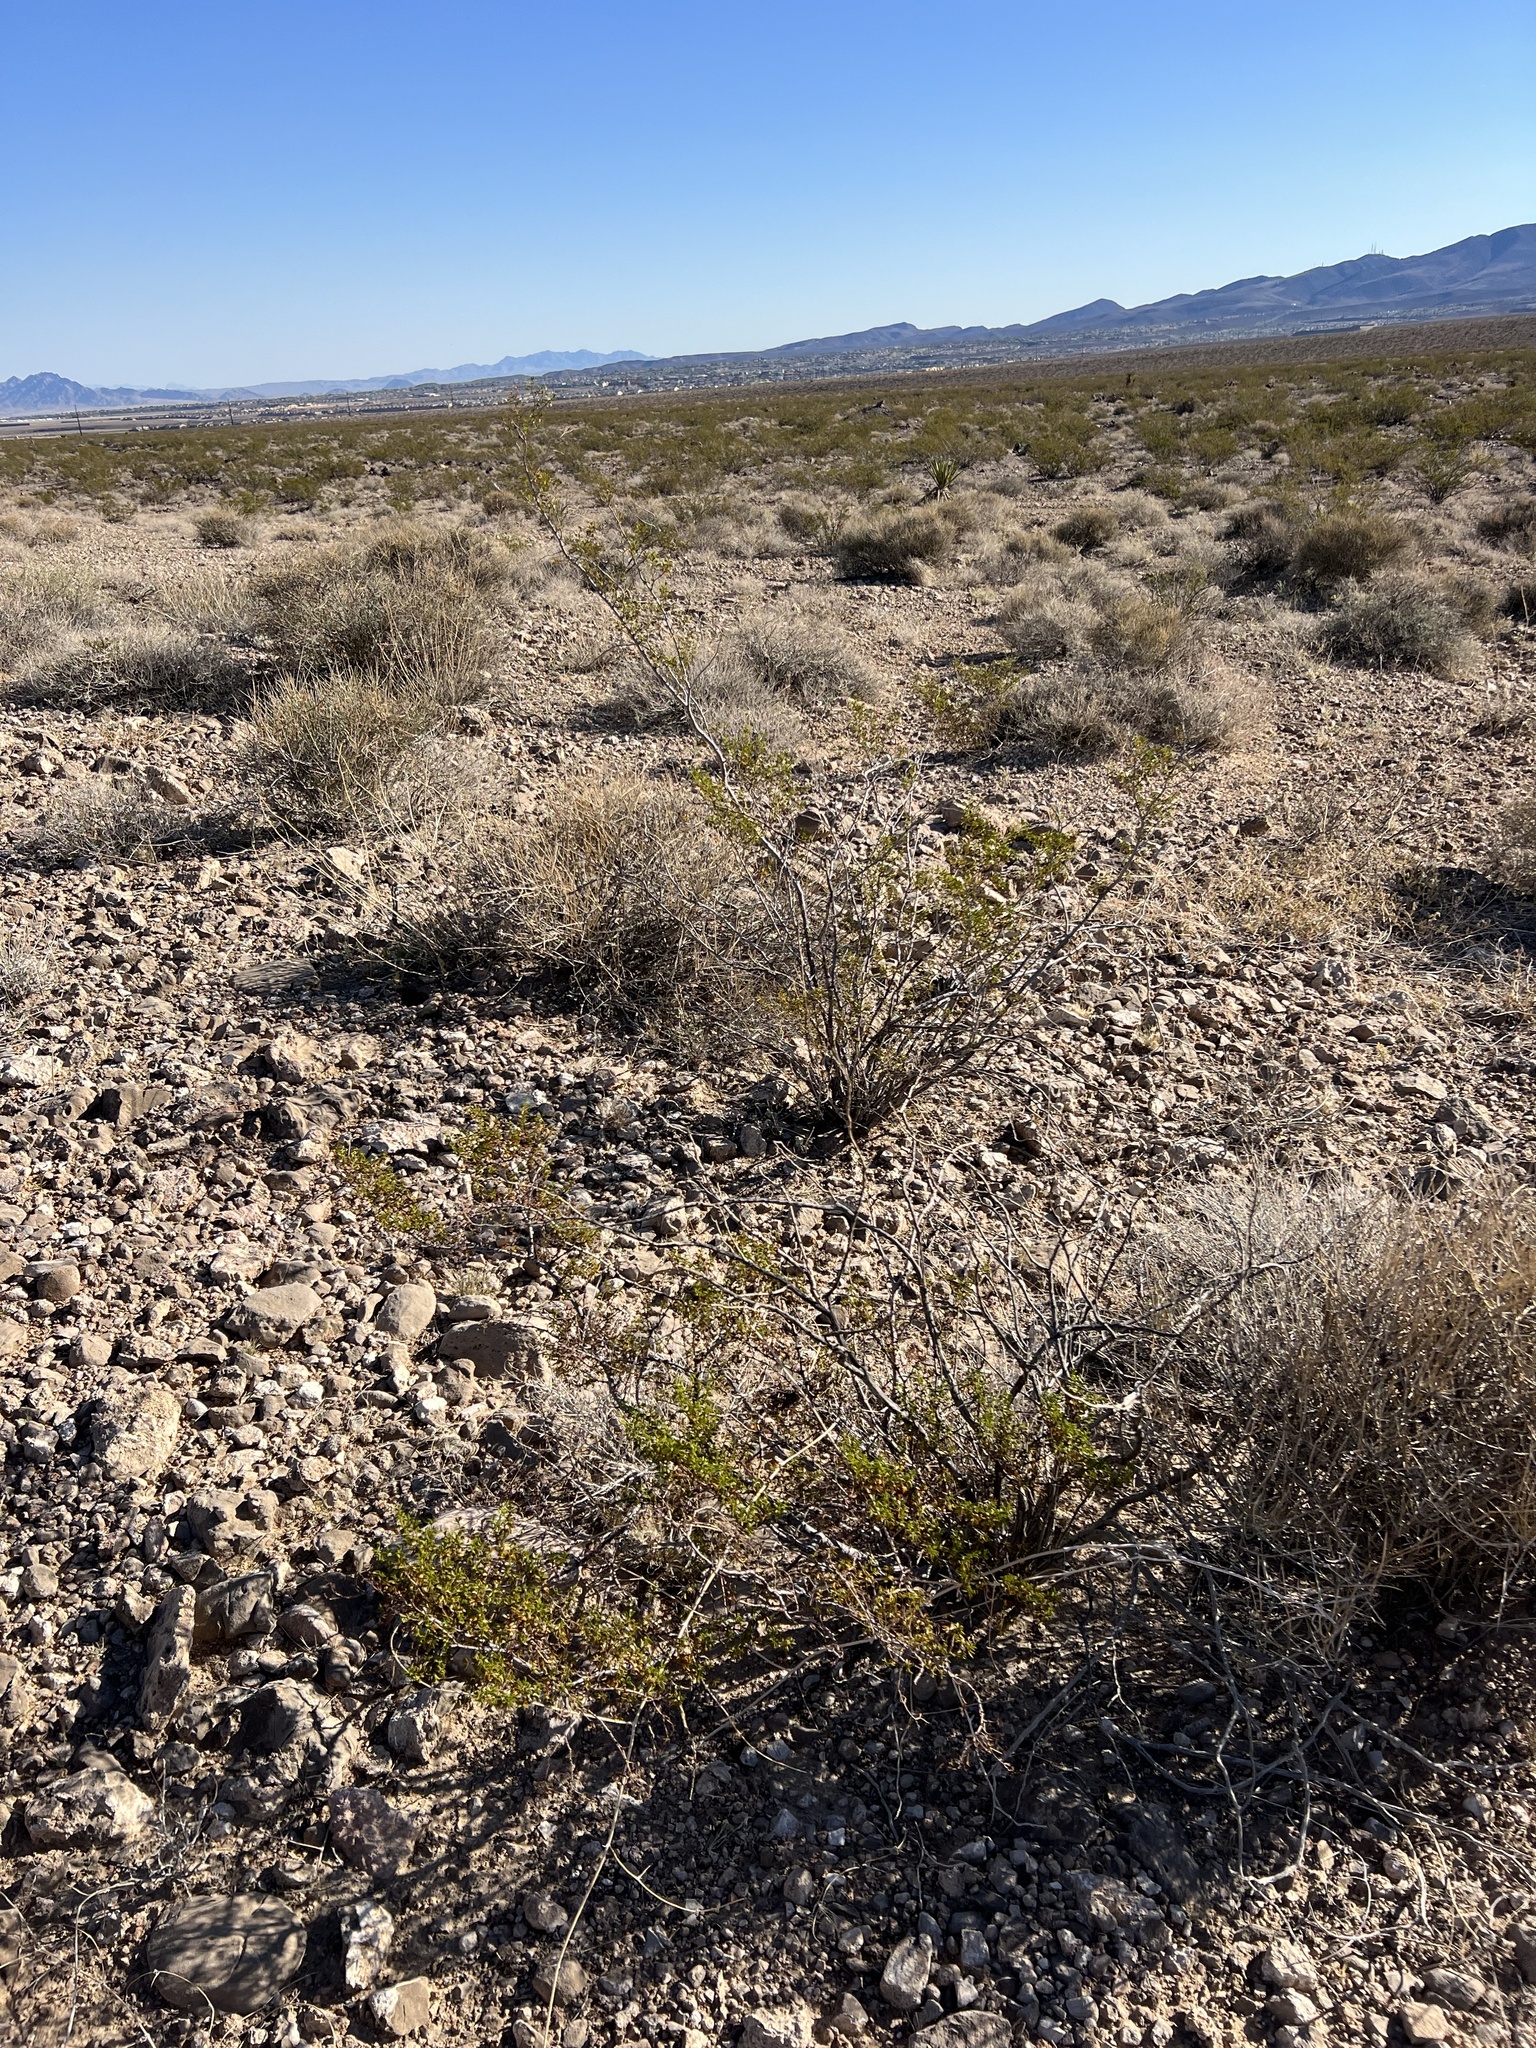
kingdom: Plantae
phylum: Tracheophyta
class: Magnoliopsida
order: Zygophyllales
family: Zygophyllaceae
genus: Larrea
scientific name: Larrea tridentata
